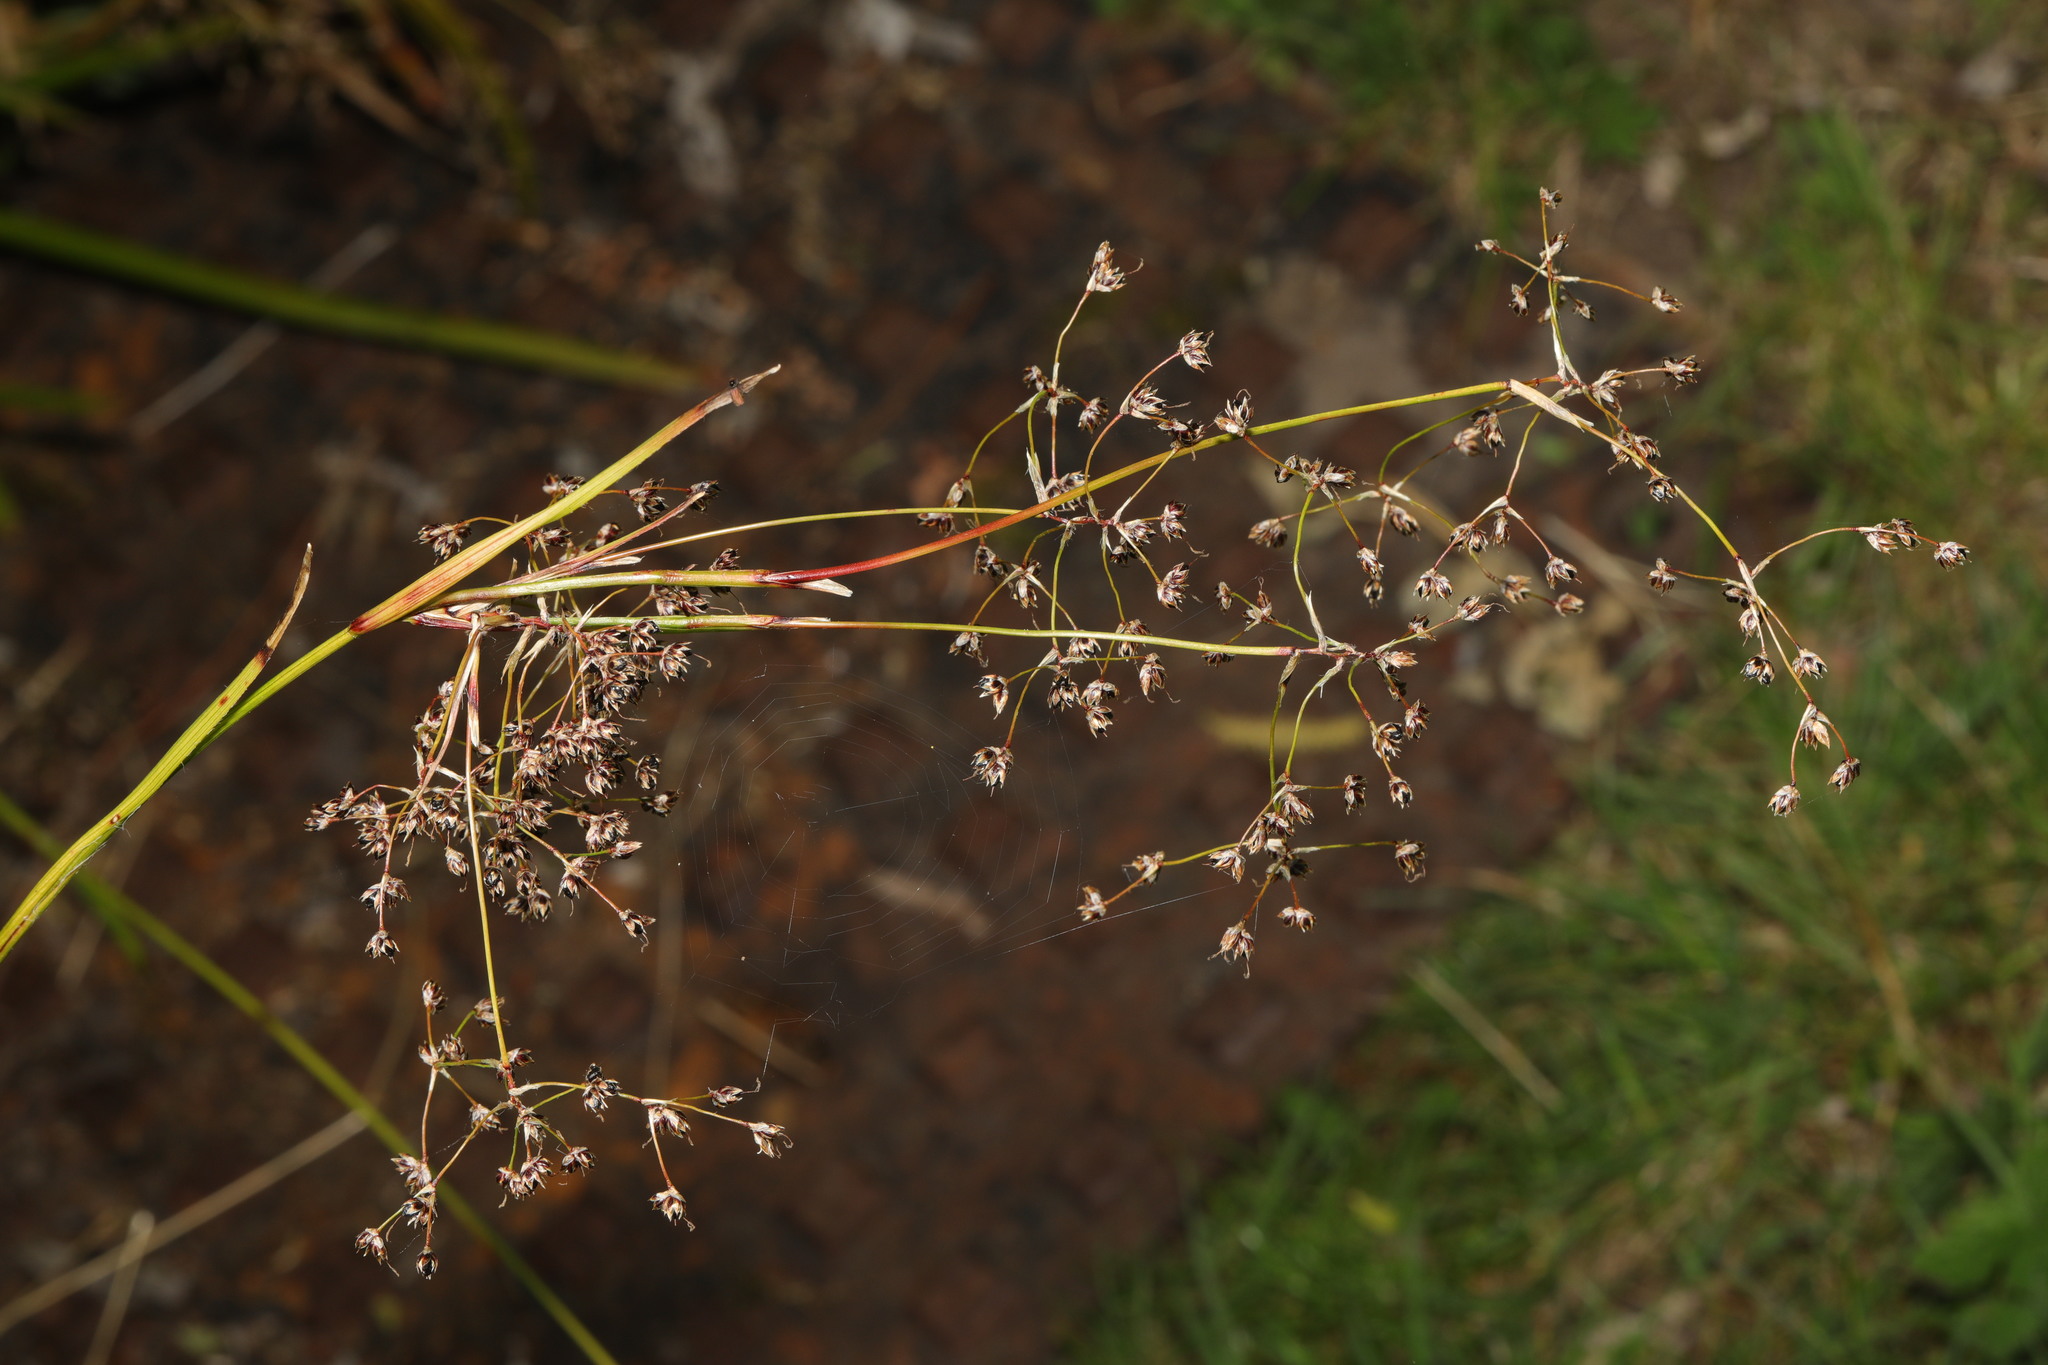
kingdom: Plantae
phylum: Tracheophyta
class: Liliopsida
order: Poales
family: Juncaceae
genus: Luzula
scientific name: Luzula sylvatica
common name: Great wood-rush
